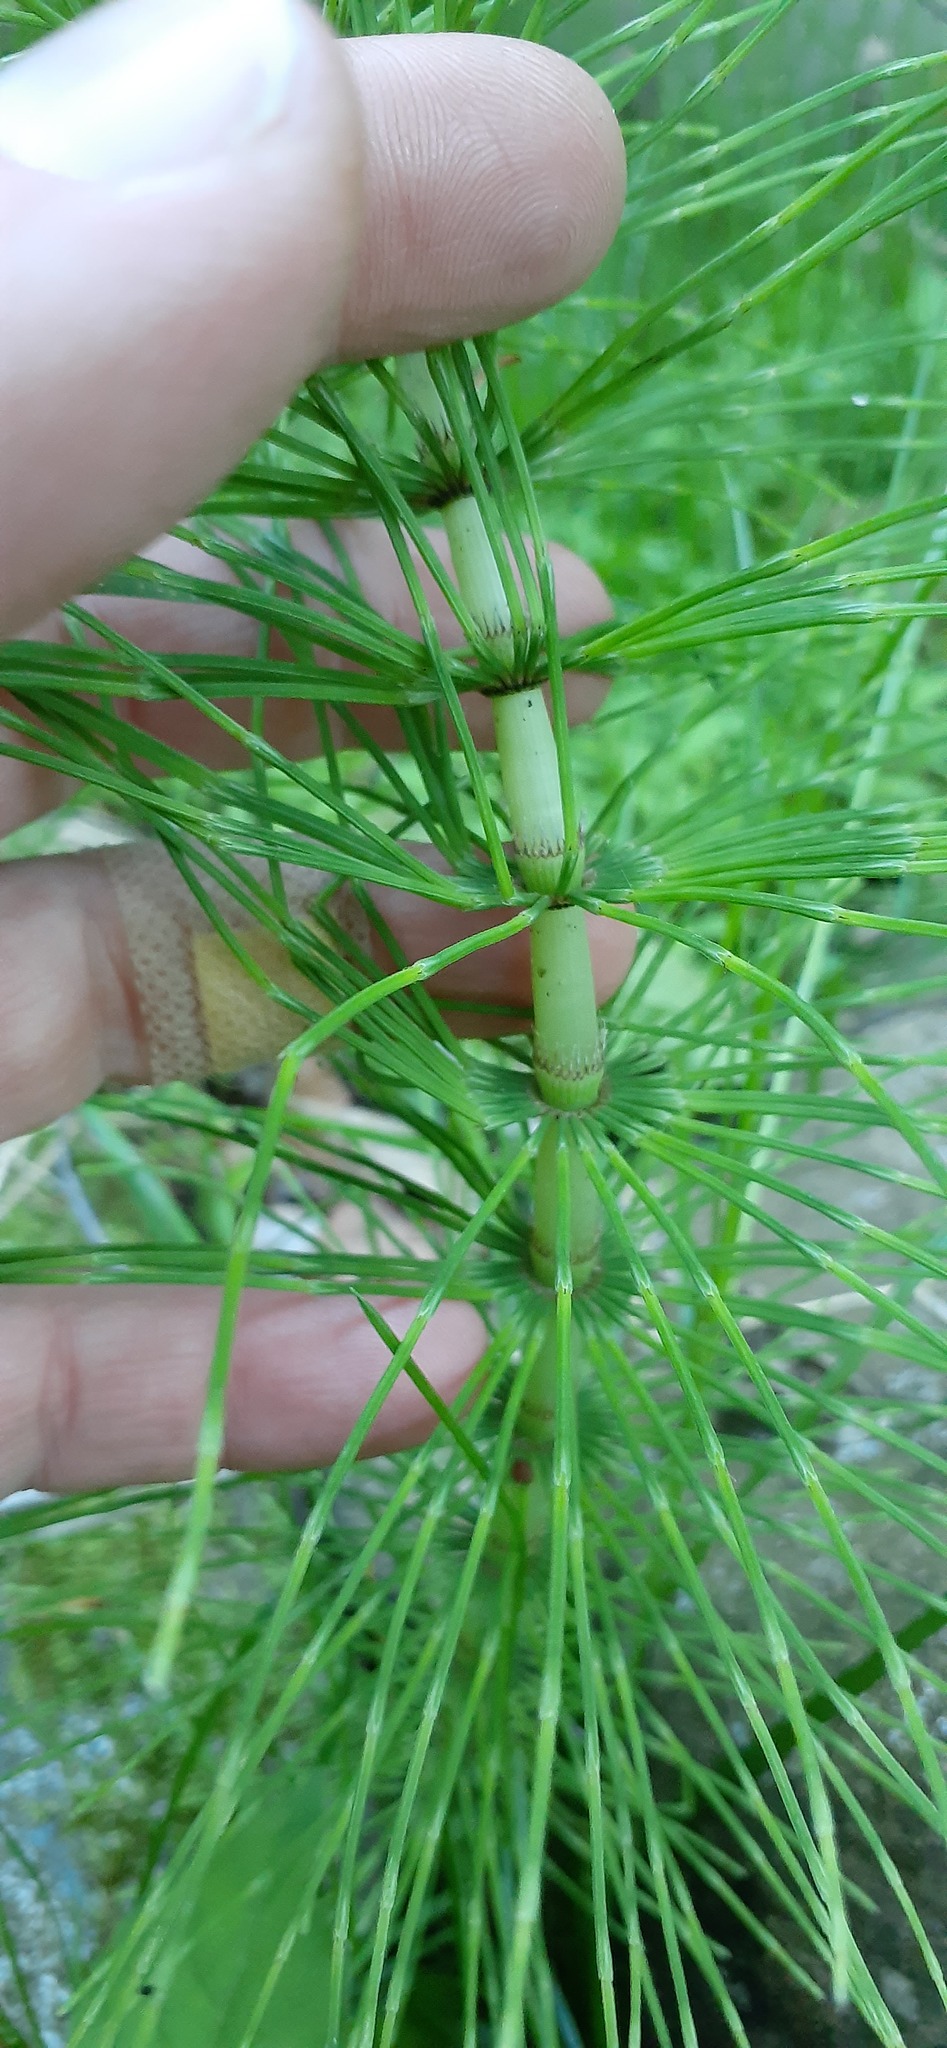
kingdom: Plantae
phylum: Tracheophyta
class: Polypodiopsida
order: Equisetales
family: Equisetaceae
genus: Equisetum
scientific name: Equisetum telmateia
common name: Great horsetail
